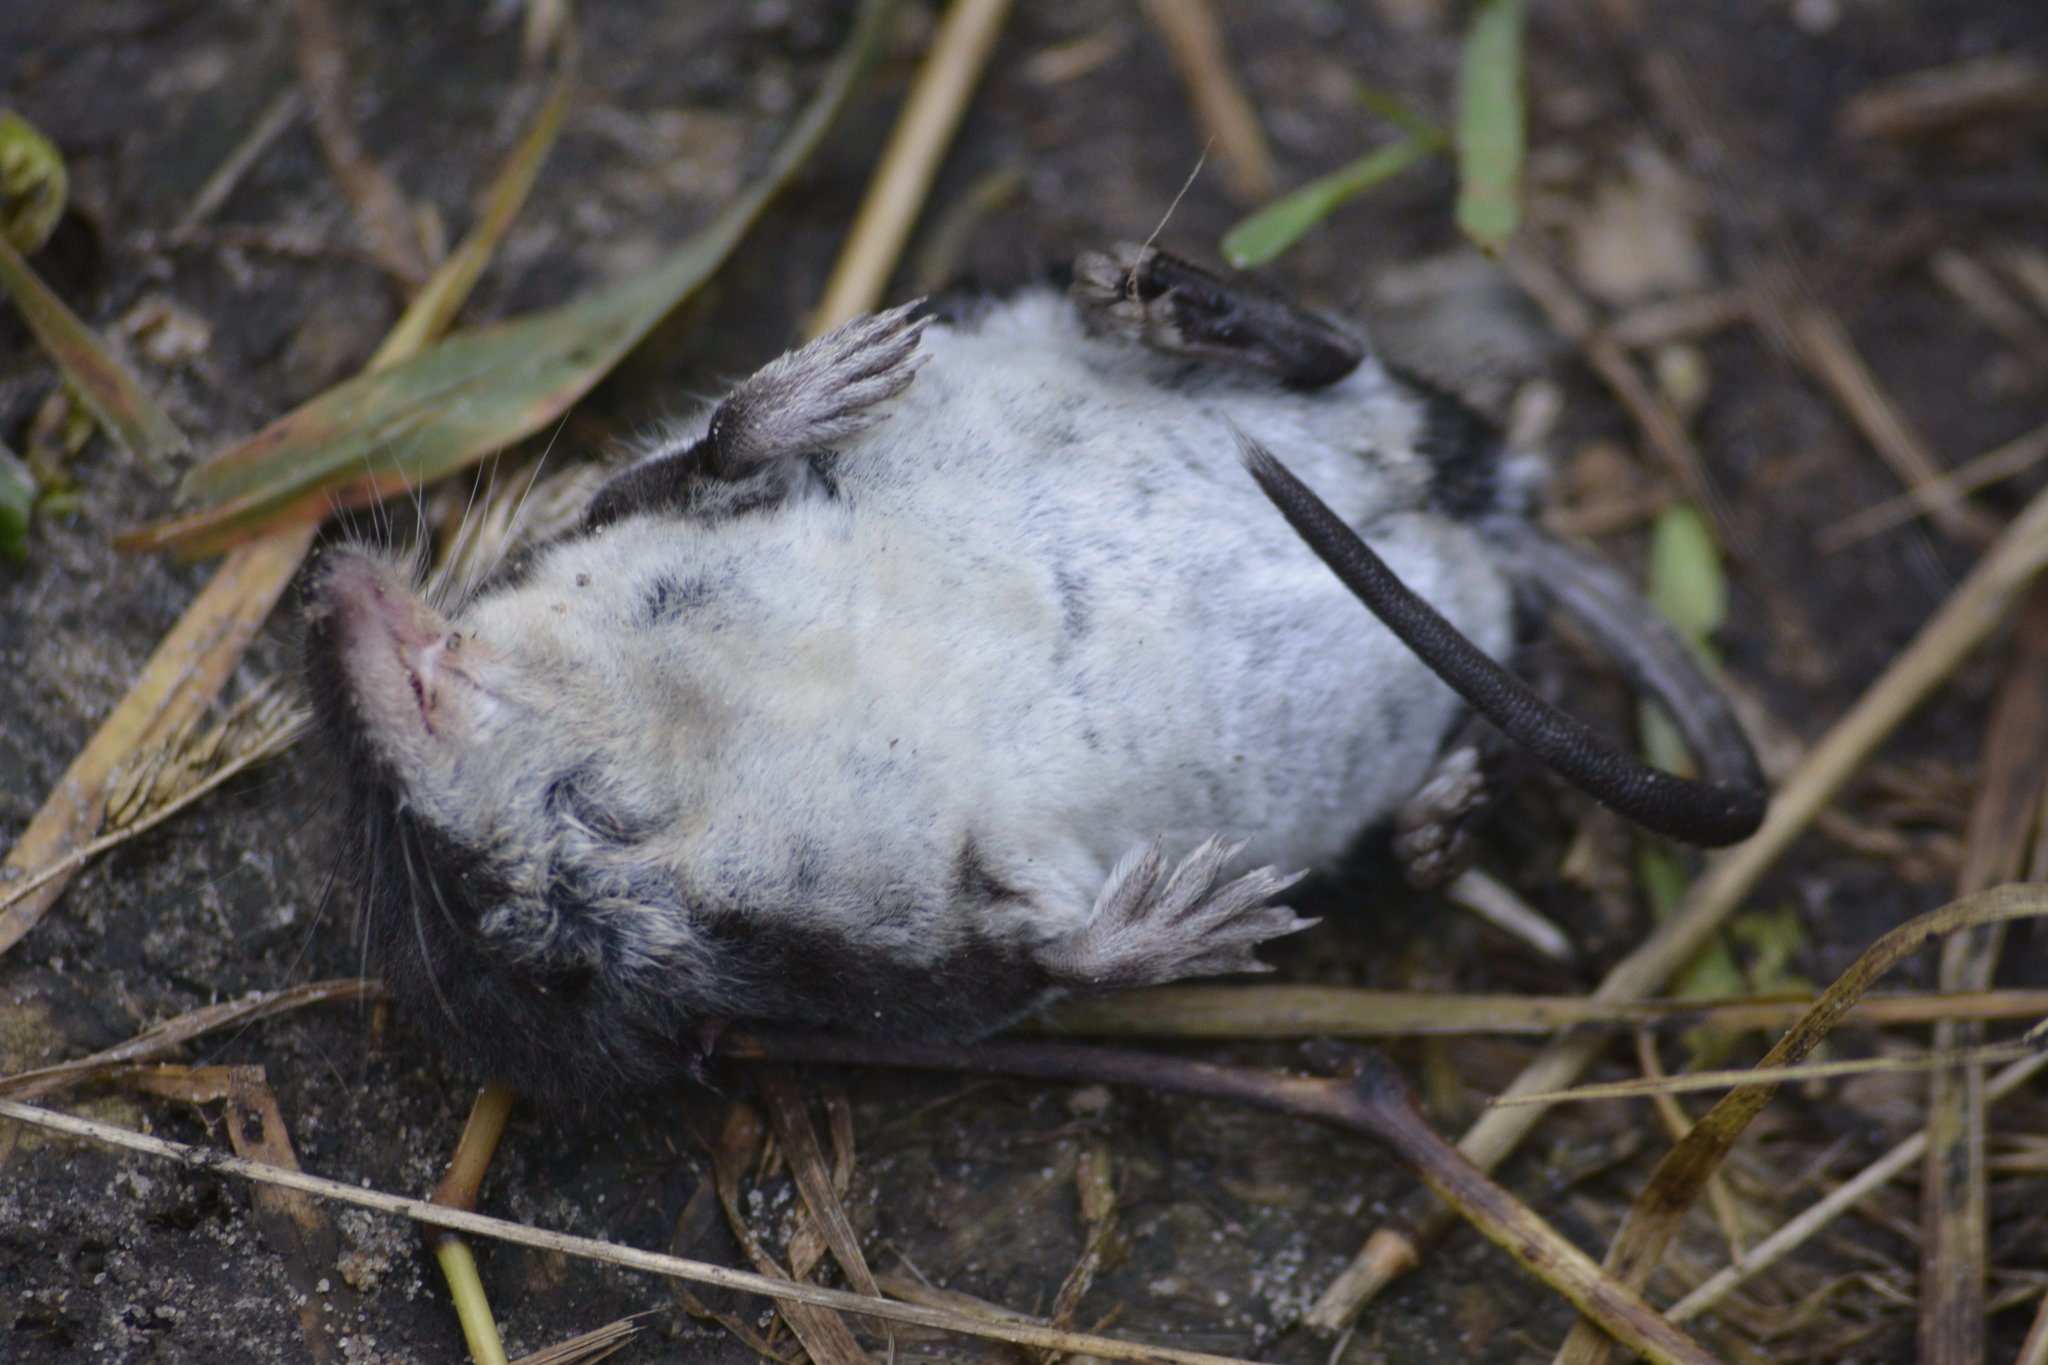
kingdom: Animalia
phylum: Chordata
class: Mammalia
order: Soricomorpha
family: Soricidae
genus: Neomys
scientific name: Neomys fodiens
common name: Eurasian water shrew
